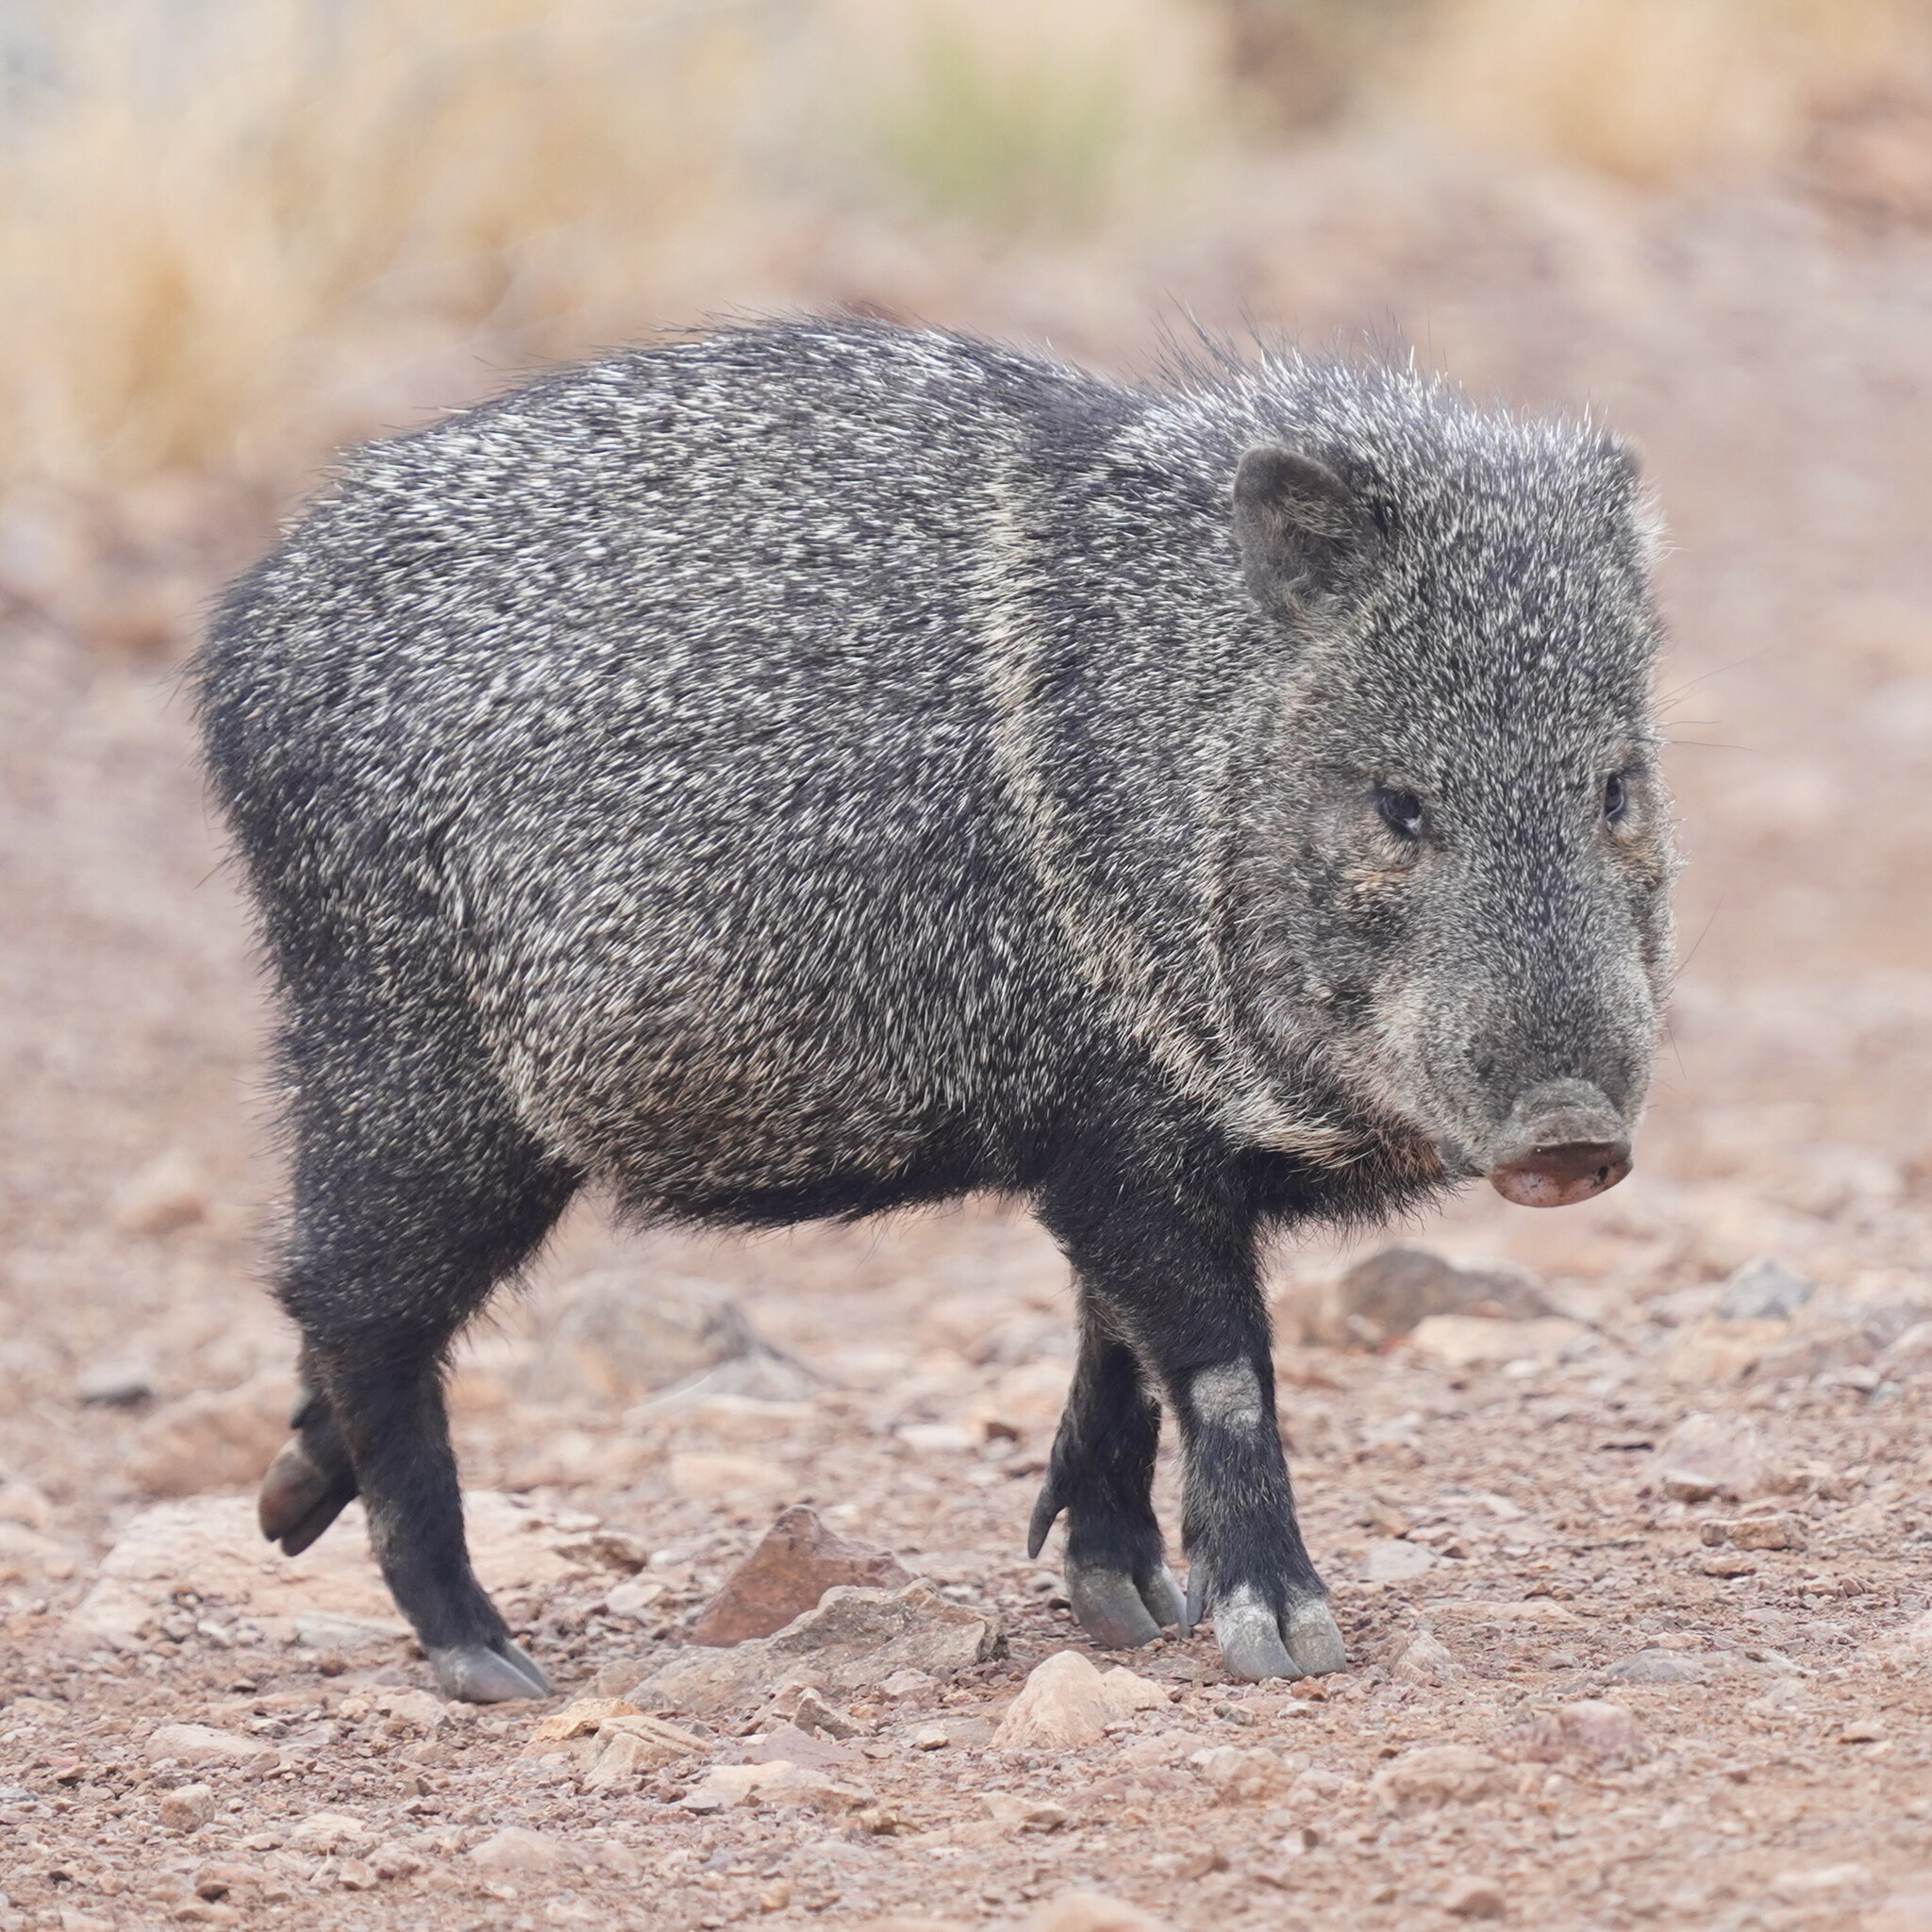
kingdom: Animalia
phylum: Chordata
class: Mammalia
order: Artiodactyla
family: Tayassuidae
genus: Pecari
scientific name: Pecari tajacu
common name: Collared peccary
